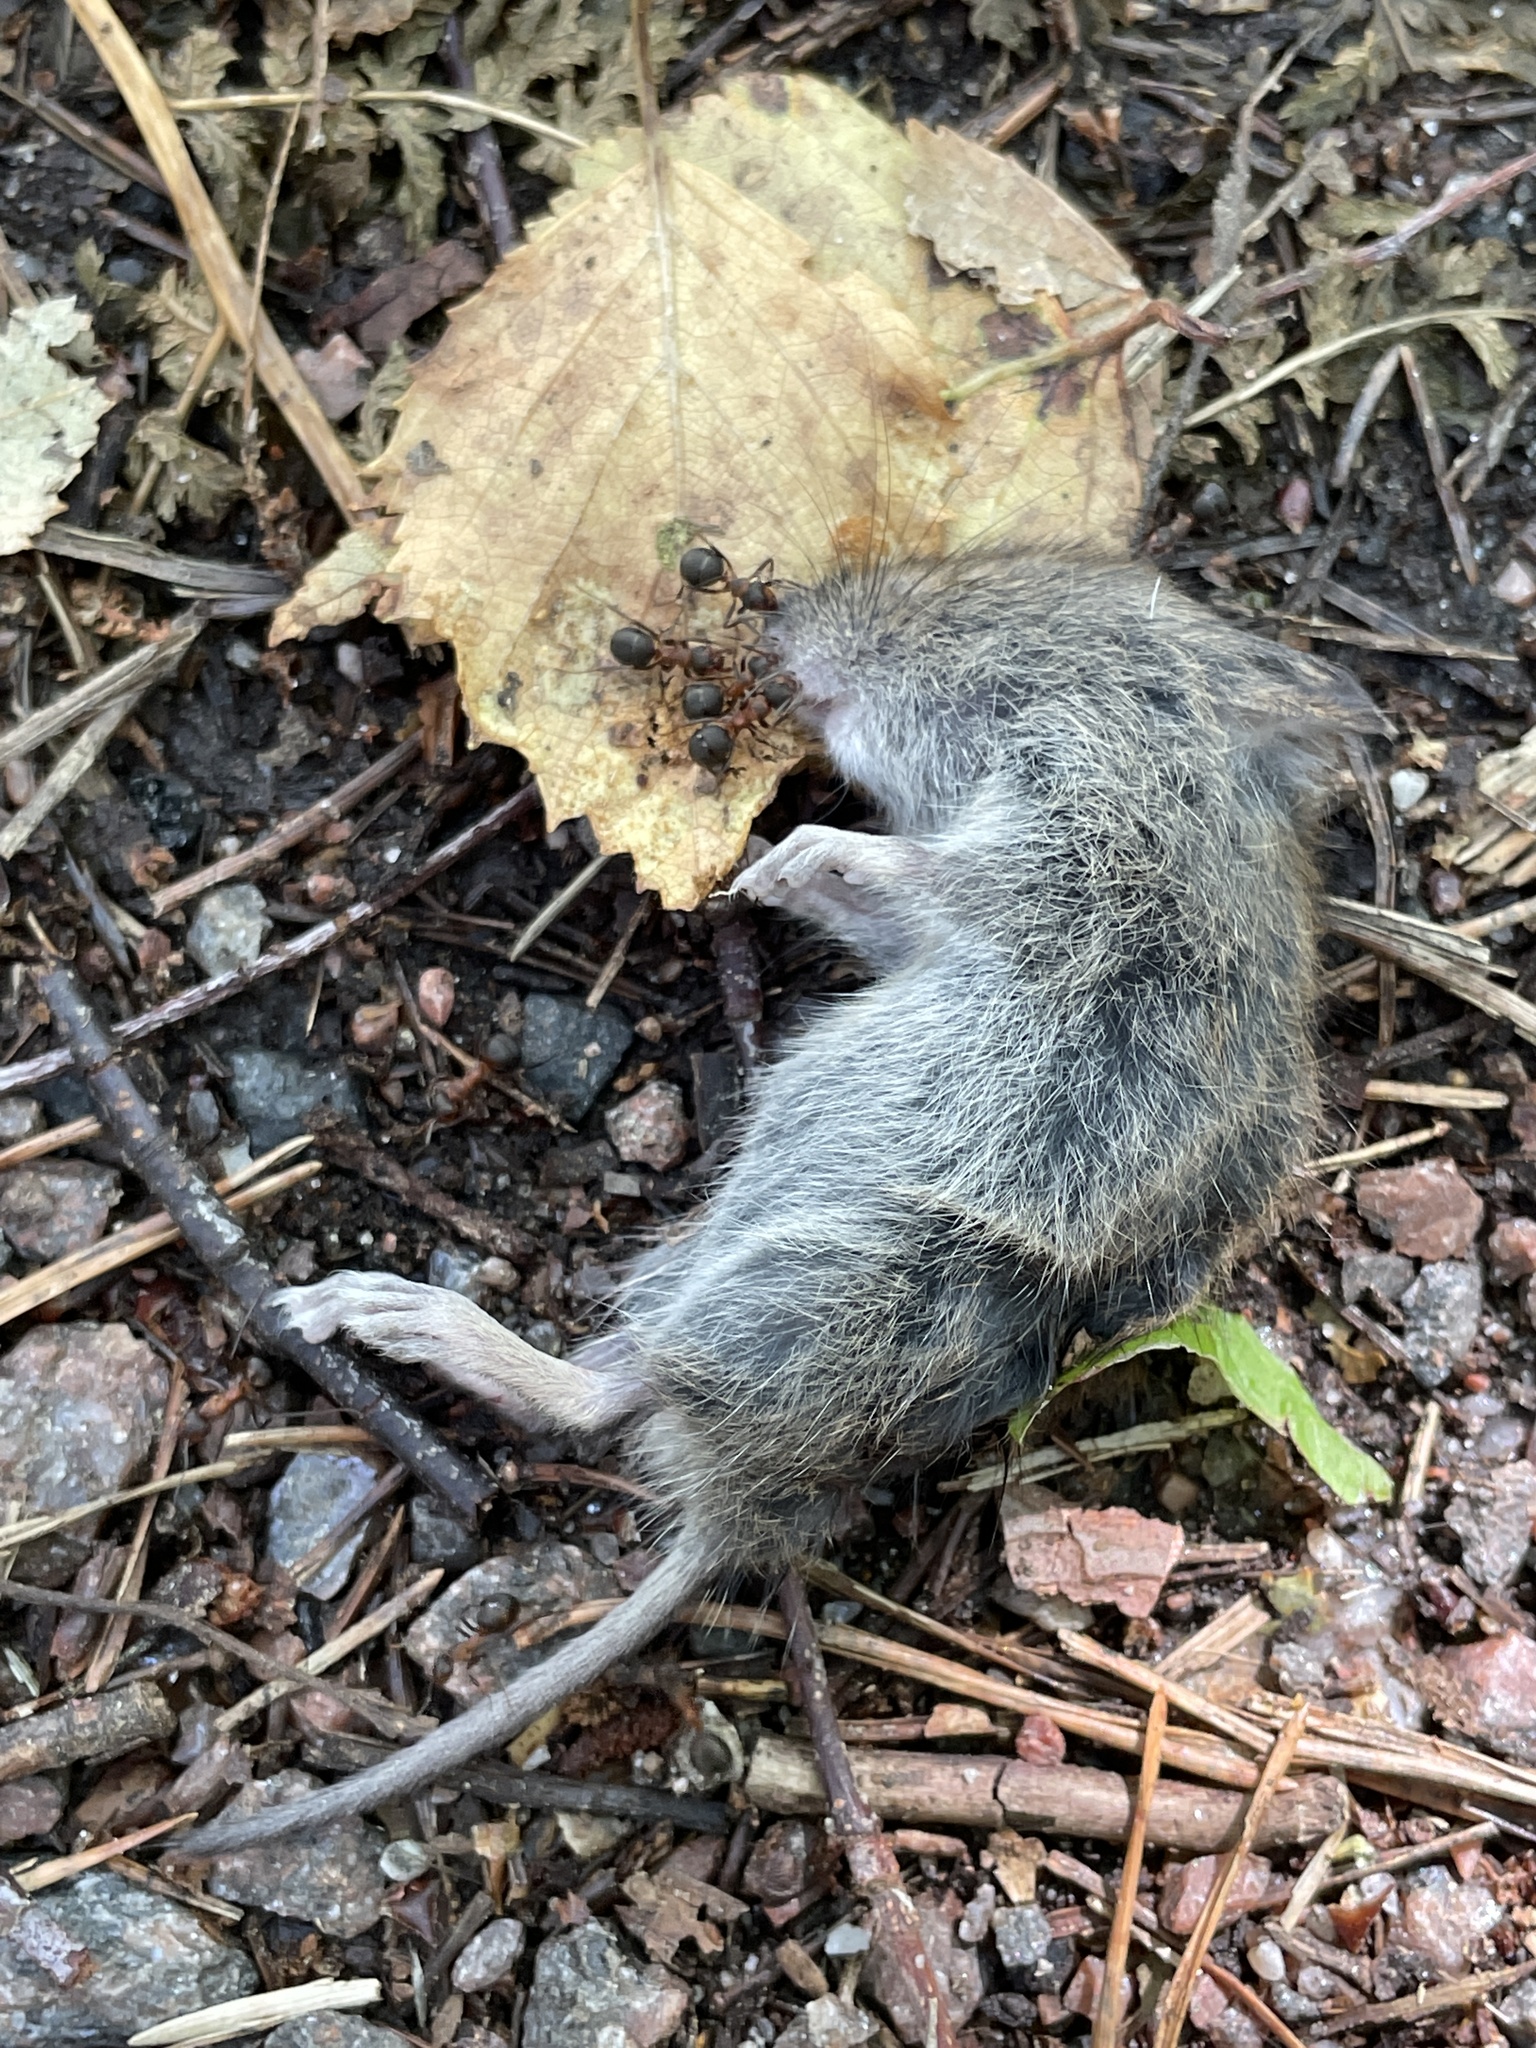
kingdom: Animalia
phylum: Chordata
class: Mammalia
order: Rodentia
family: Cricetidae
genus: Myodes
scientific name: Myodes glareolus
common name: Bank vole
